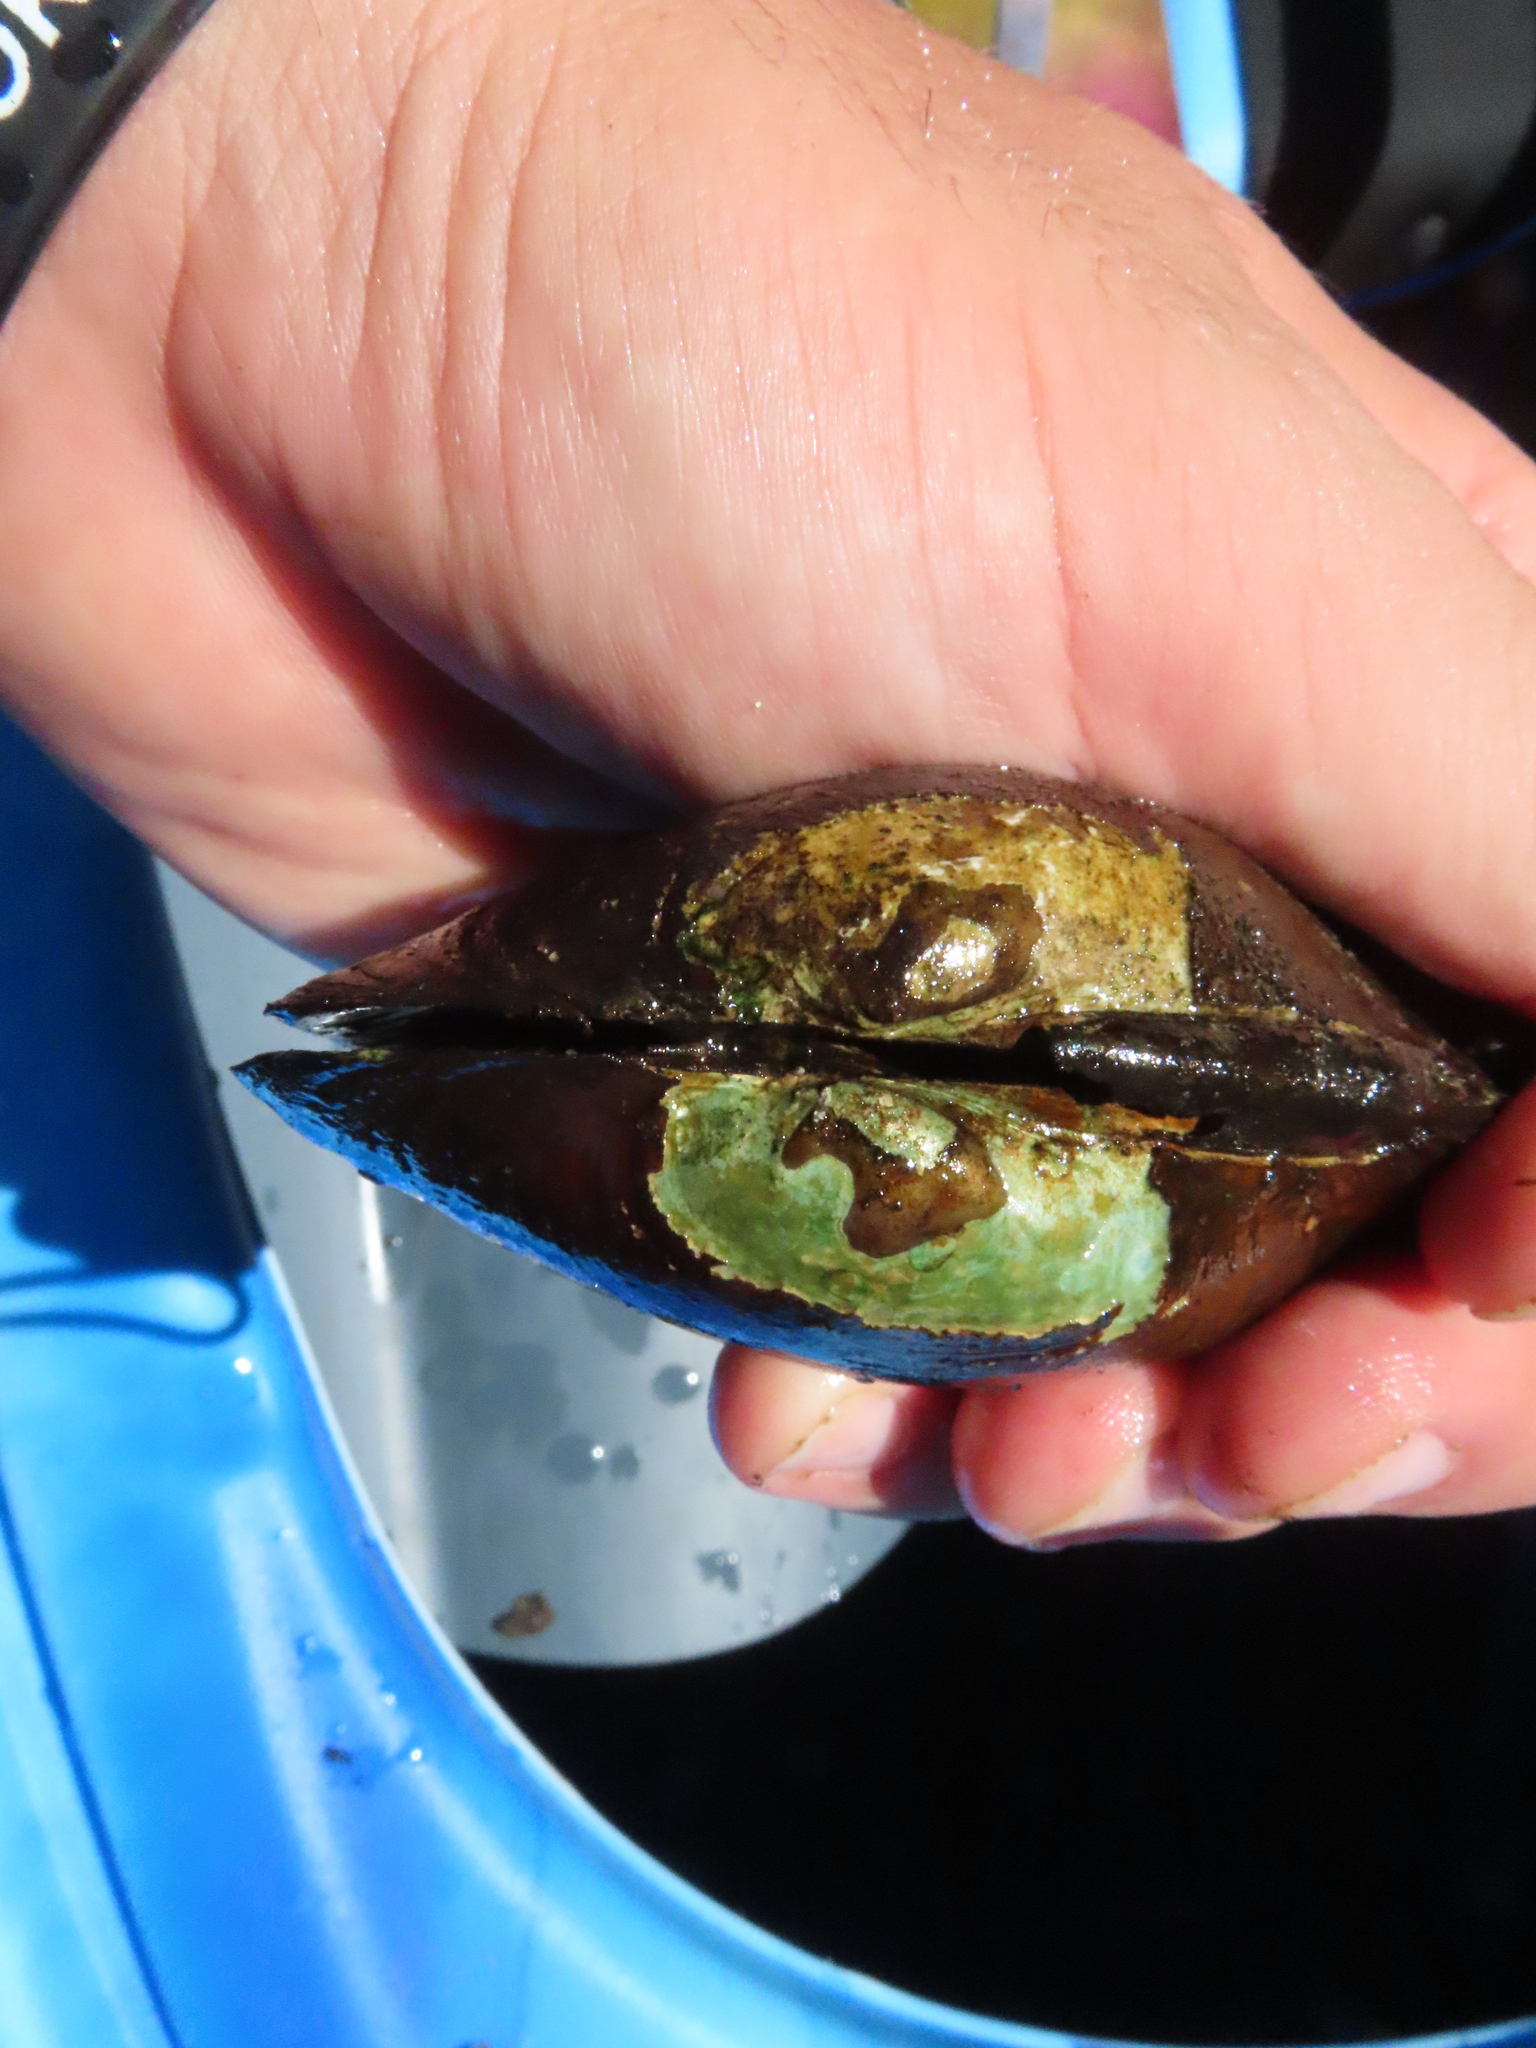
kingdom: Animalia
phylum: Mollusca
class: Bivalvia
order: Unionida
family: Unionidae
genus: Lampsilis
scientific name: Lampsilis cardium
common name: Plain pocketbook
